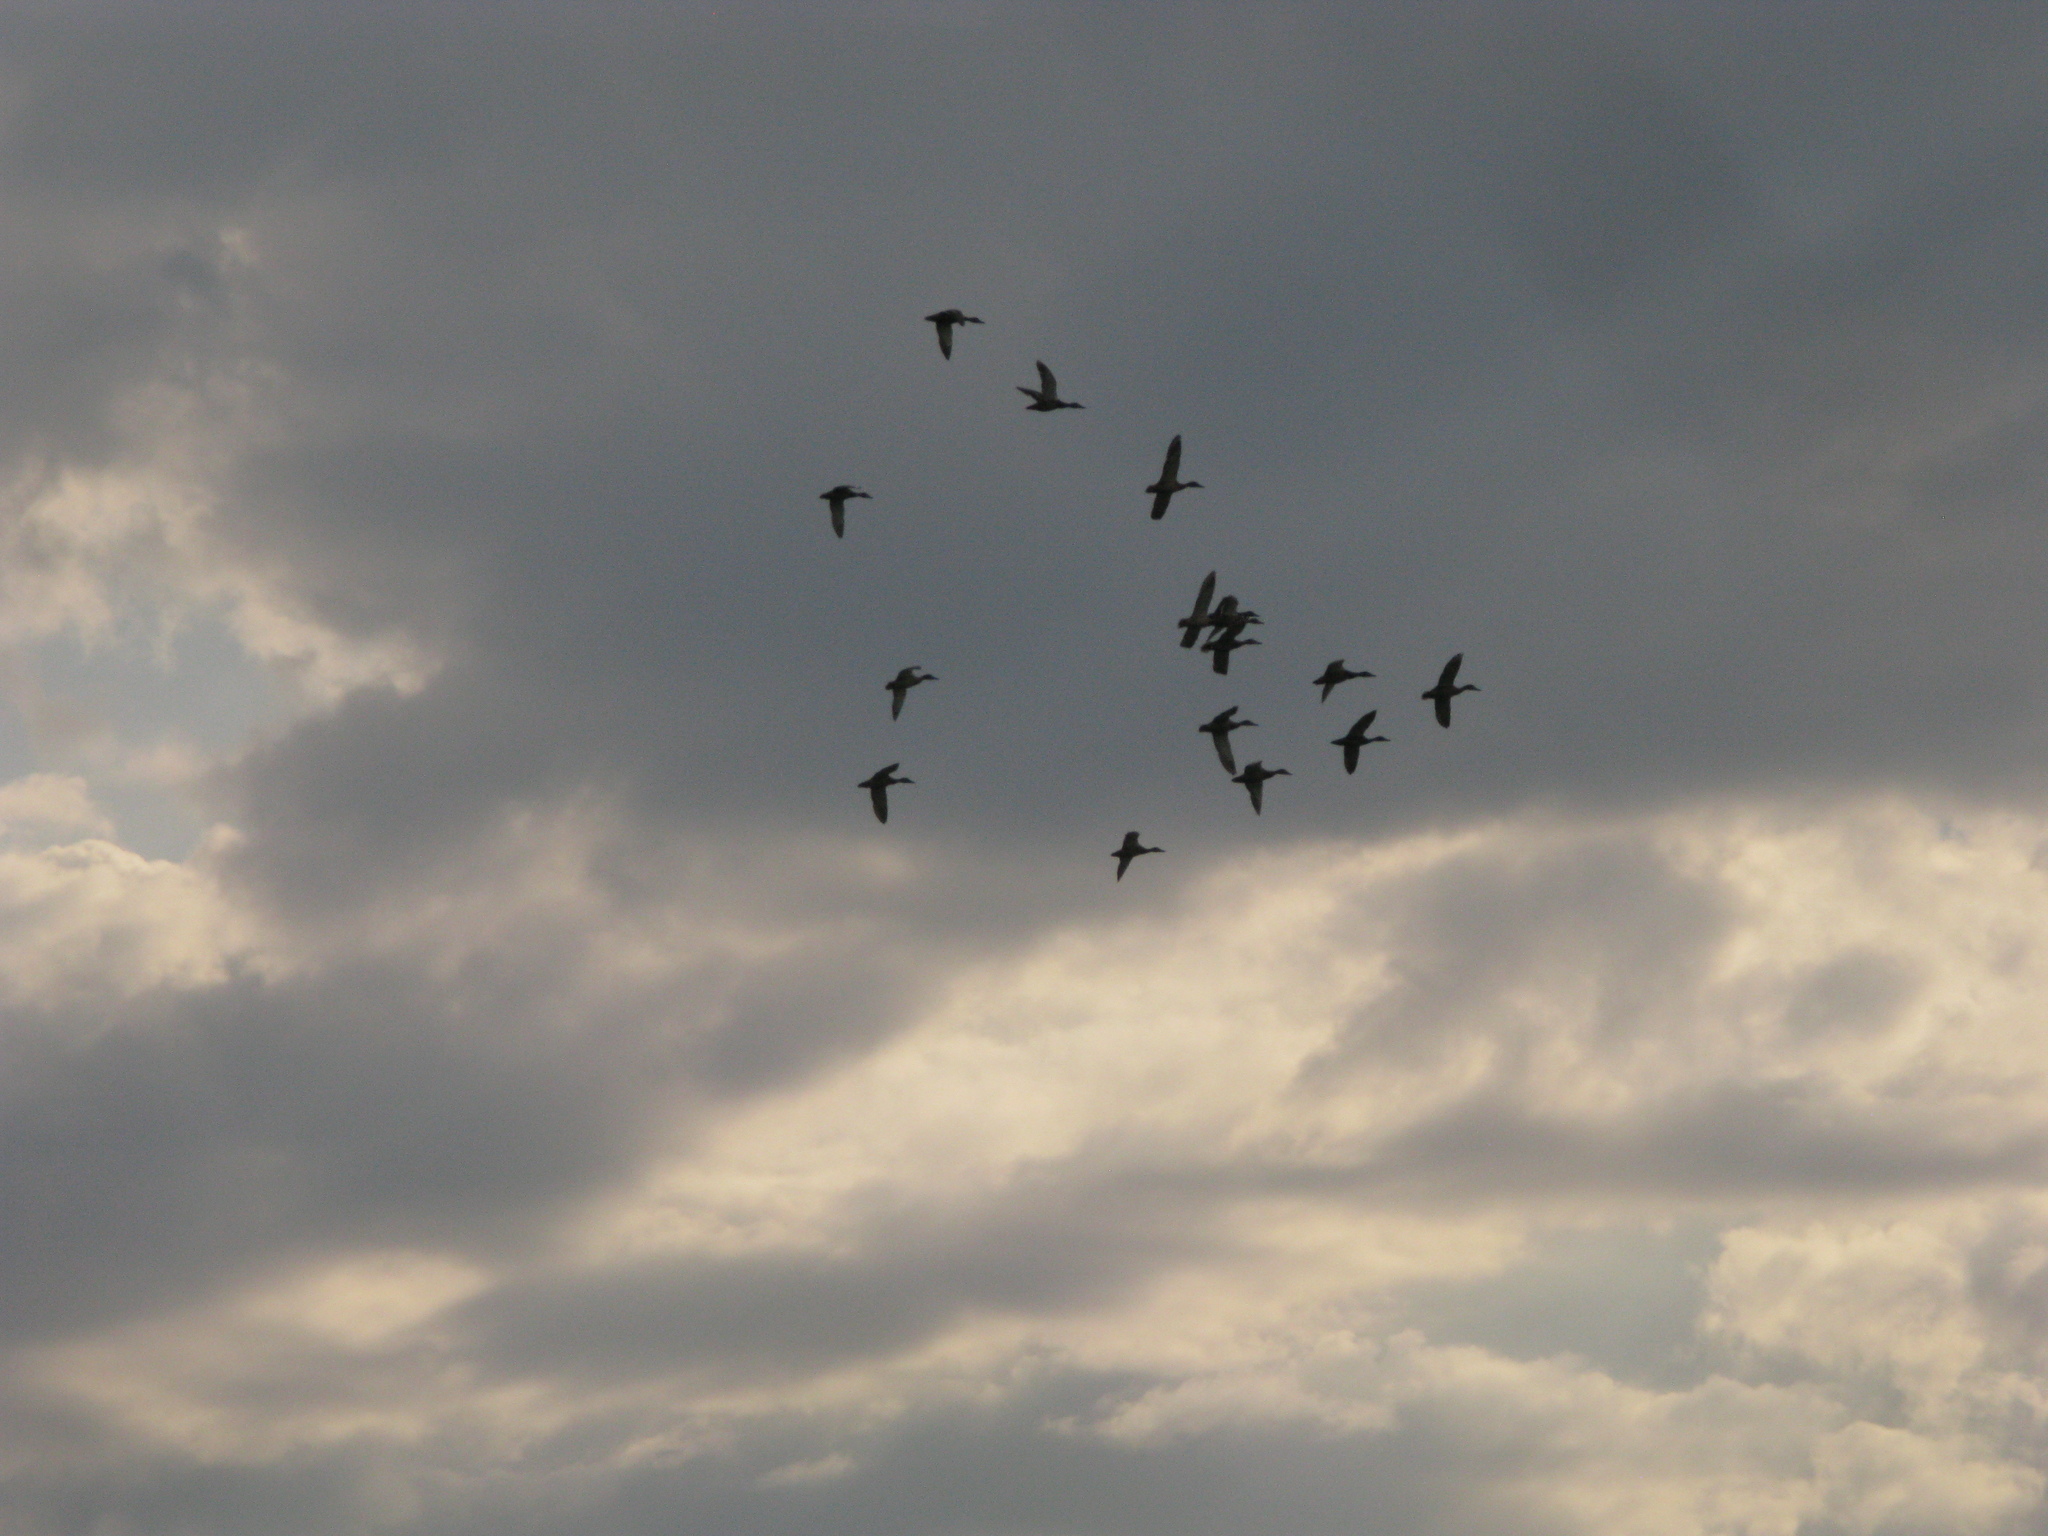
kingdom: Animalia
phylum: Chordata
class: Aves
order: Anseriformes
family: Anatidae
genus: Anas
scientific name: Anas platyrhynchos
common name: Mallard
